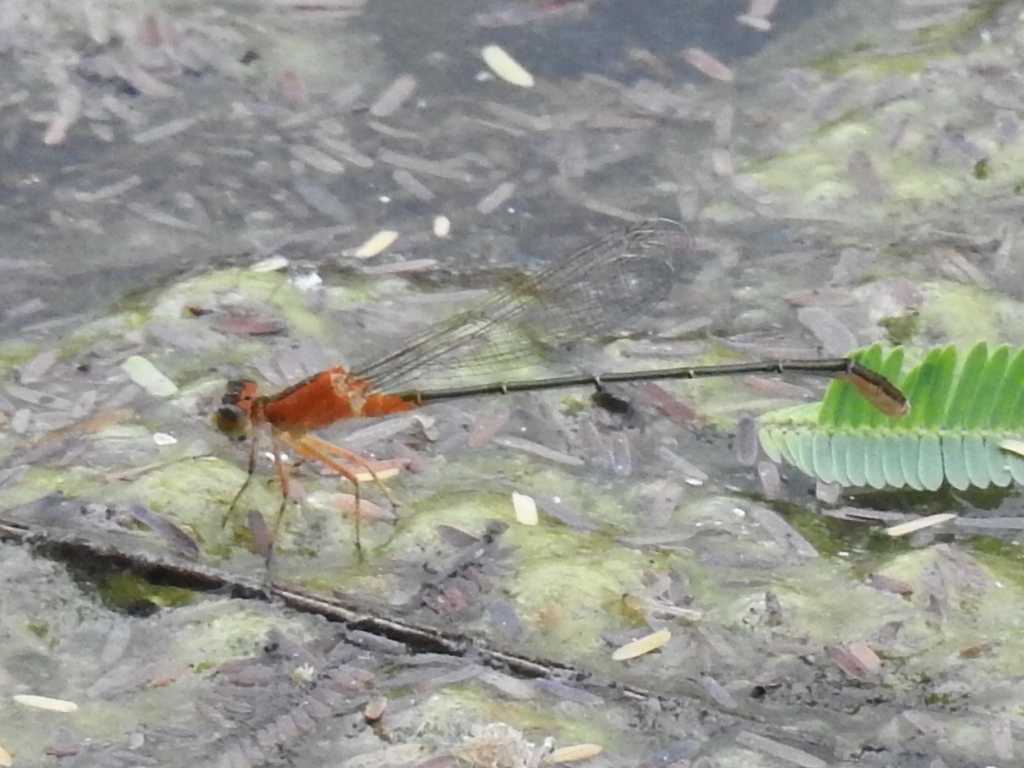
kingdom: Animalia
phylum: Arthropoda
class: Insecta
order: Odonata
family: Coenagrionidae
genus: Ischnura
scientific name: Ischnura ramburii
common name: Rambur's forktail
